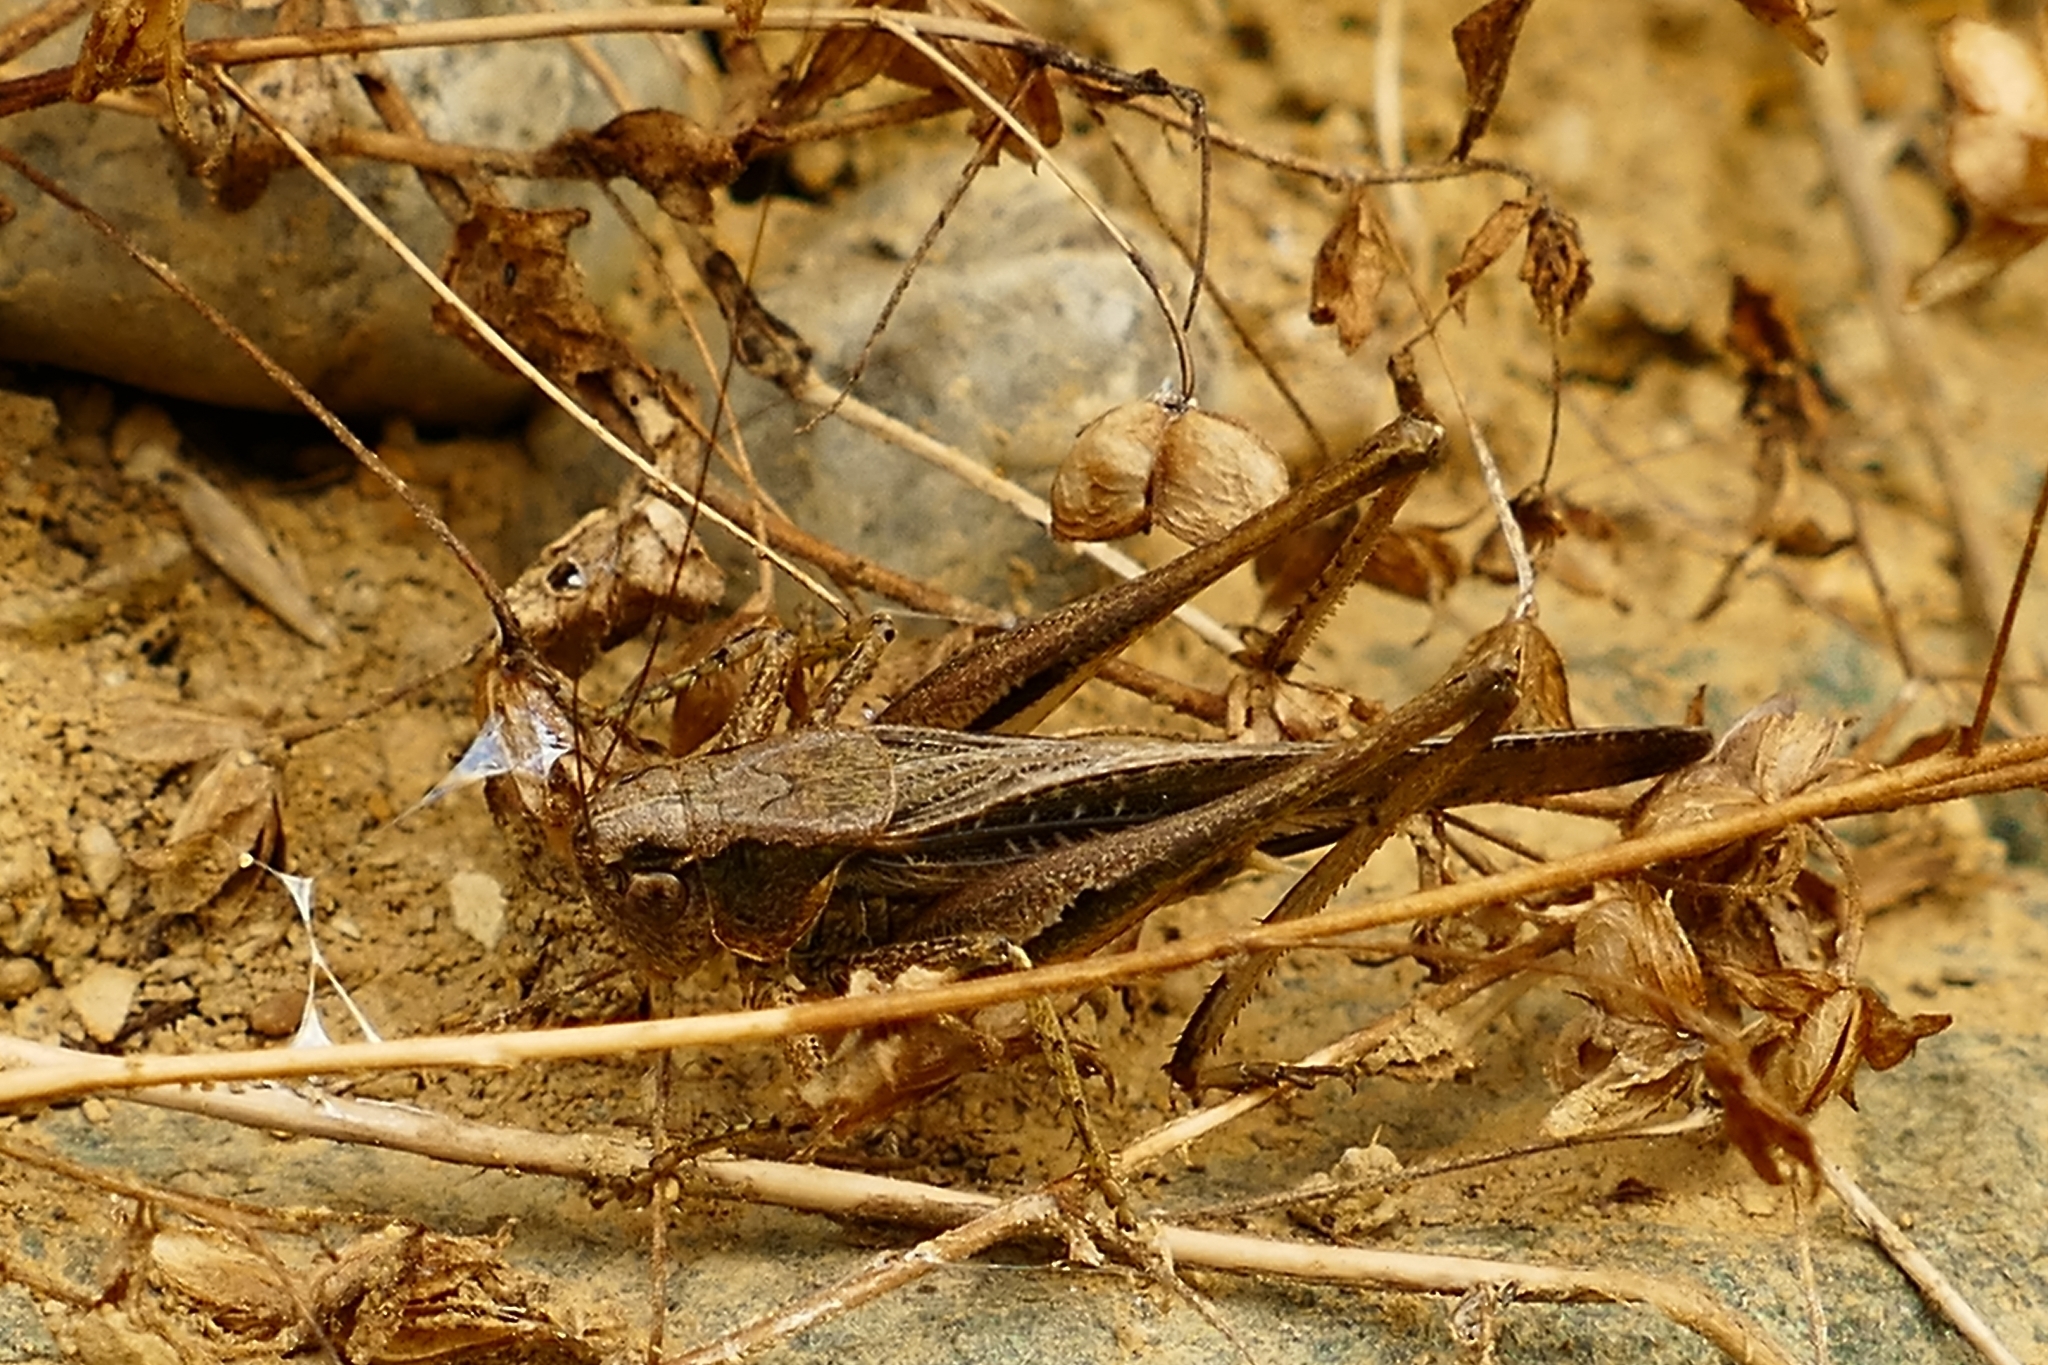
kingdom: Animalia
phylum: Arthropoda
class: Insecta
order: Orthoptera
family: Tettigoniidae
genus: Platycleis
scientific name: Platycleis grisea
